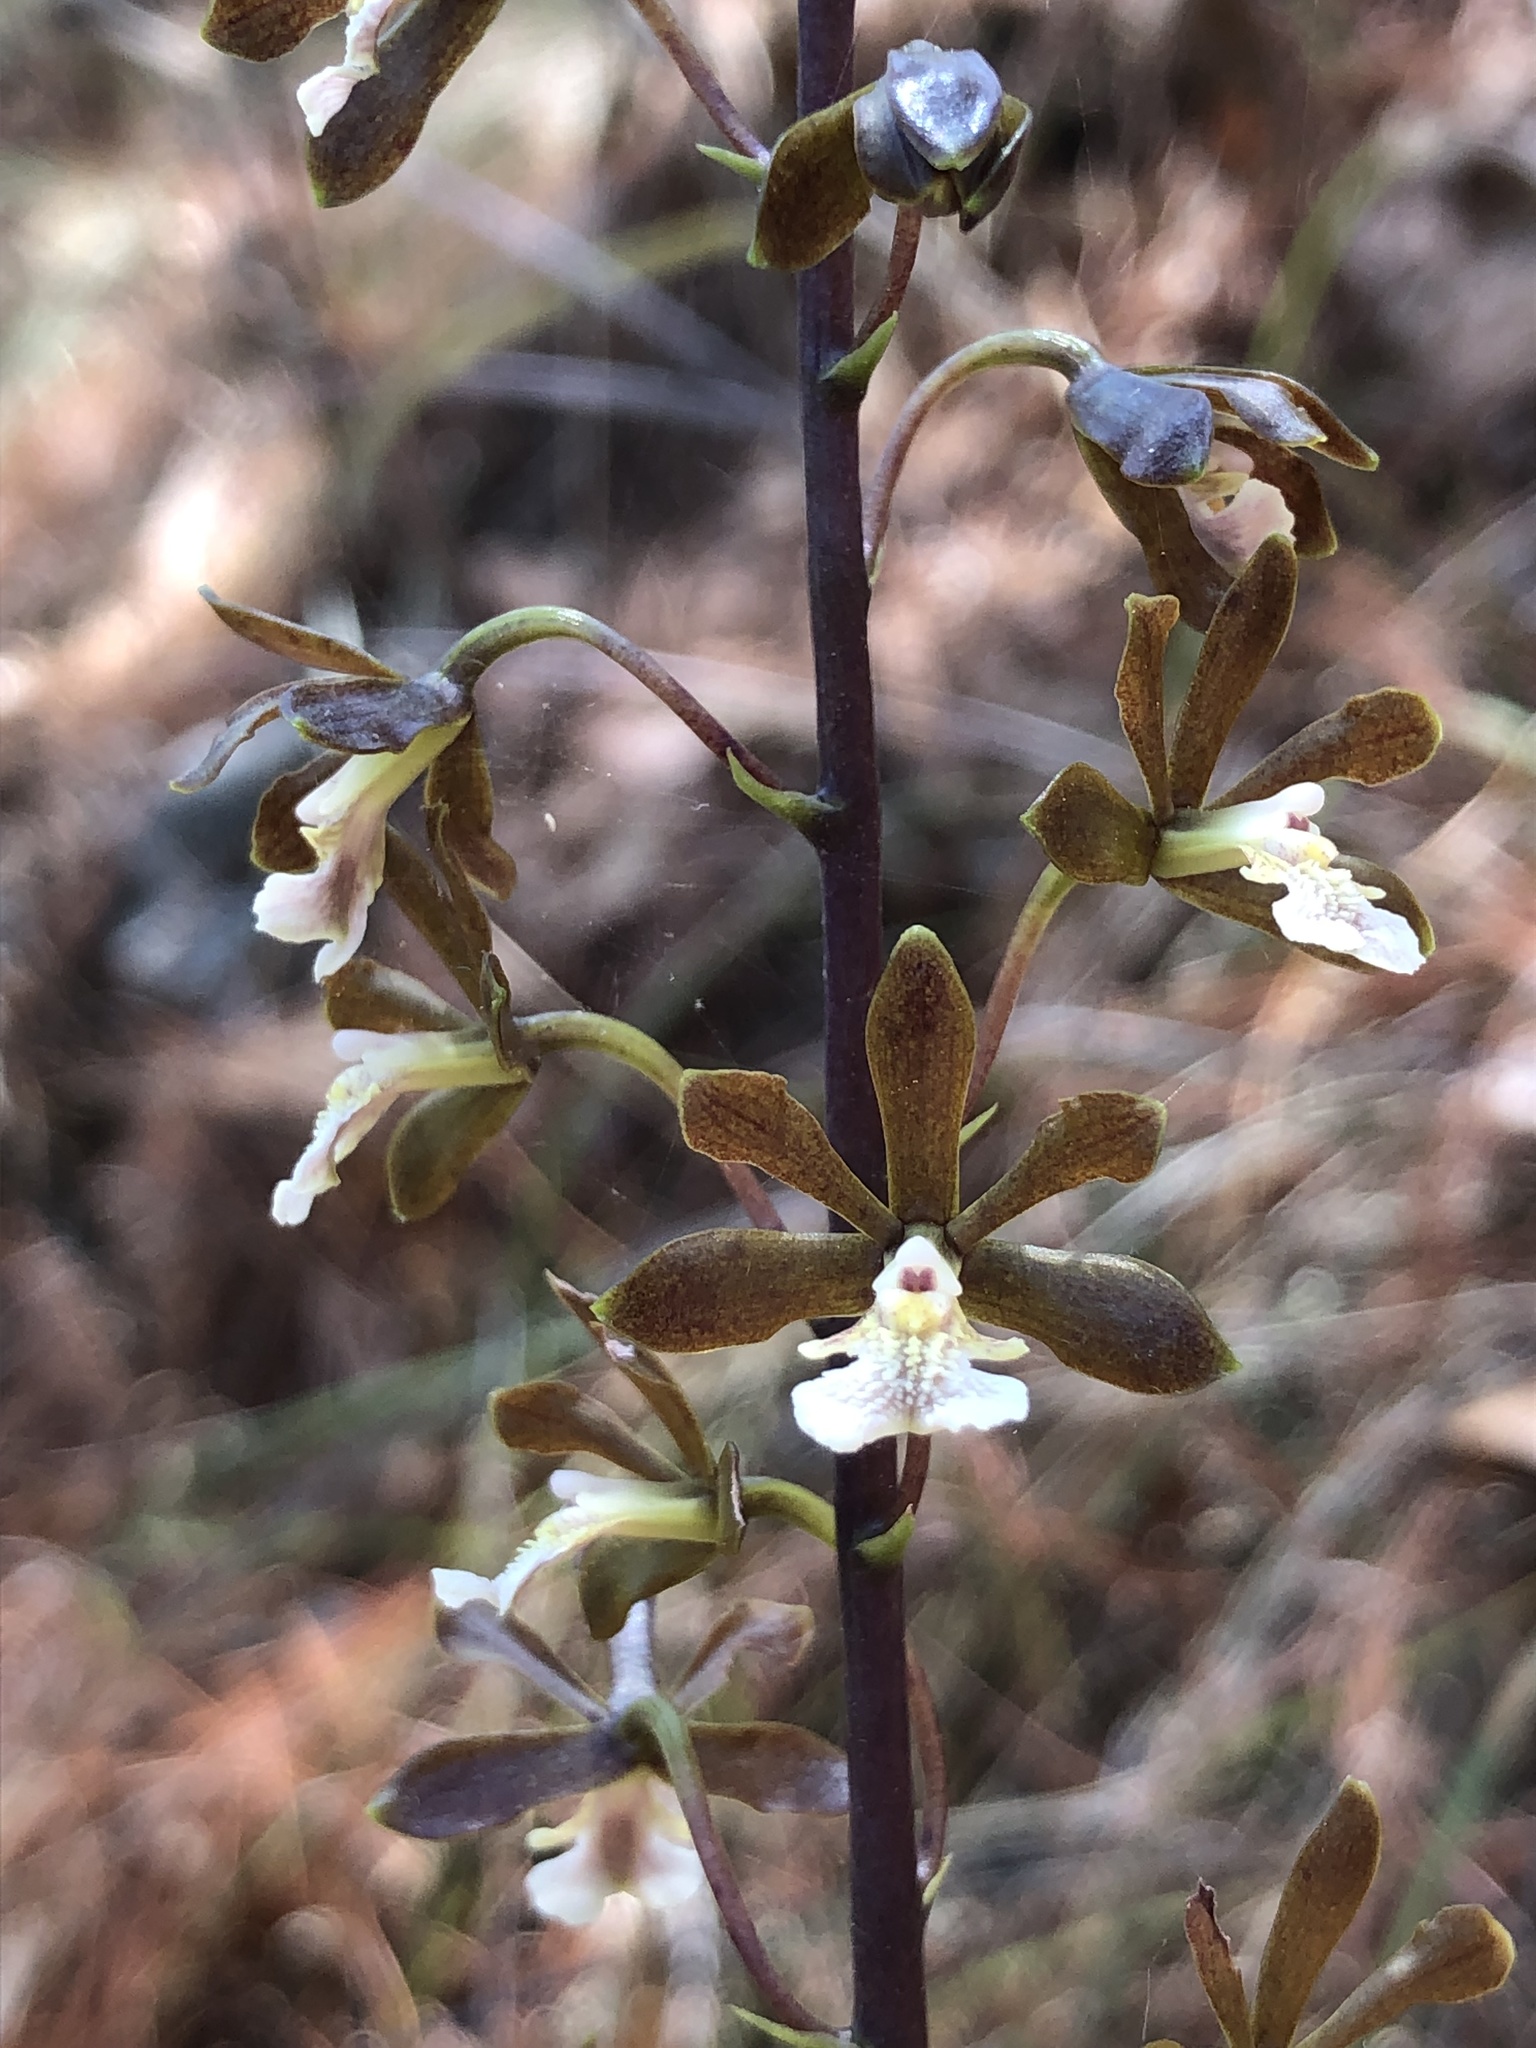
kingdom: Plantae
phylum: Tracheophyta
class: Liliopsida
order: Asparagales
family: Orchidaceae
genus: Prosthechea
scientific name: Prosthechea varicosa
